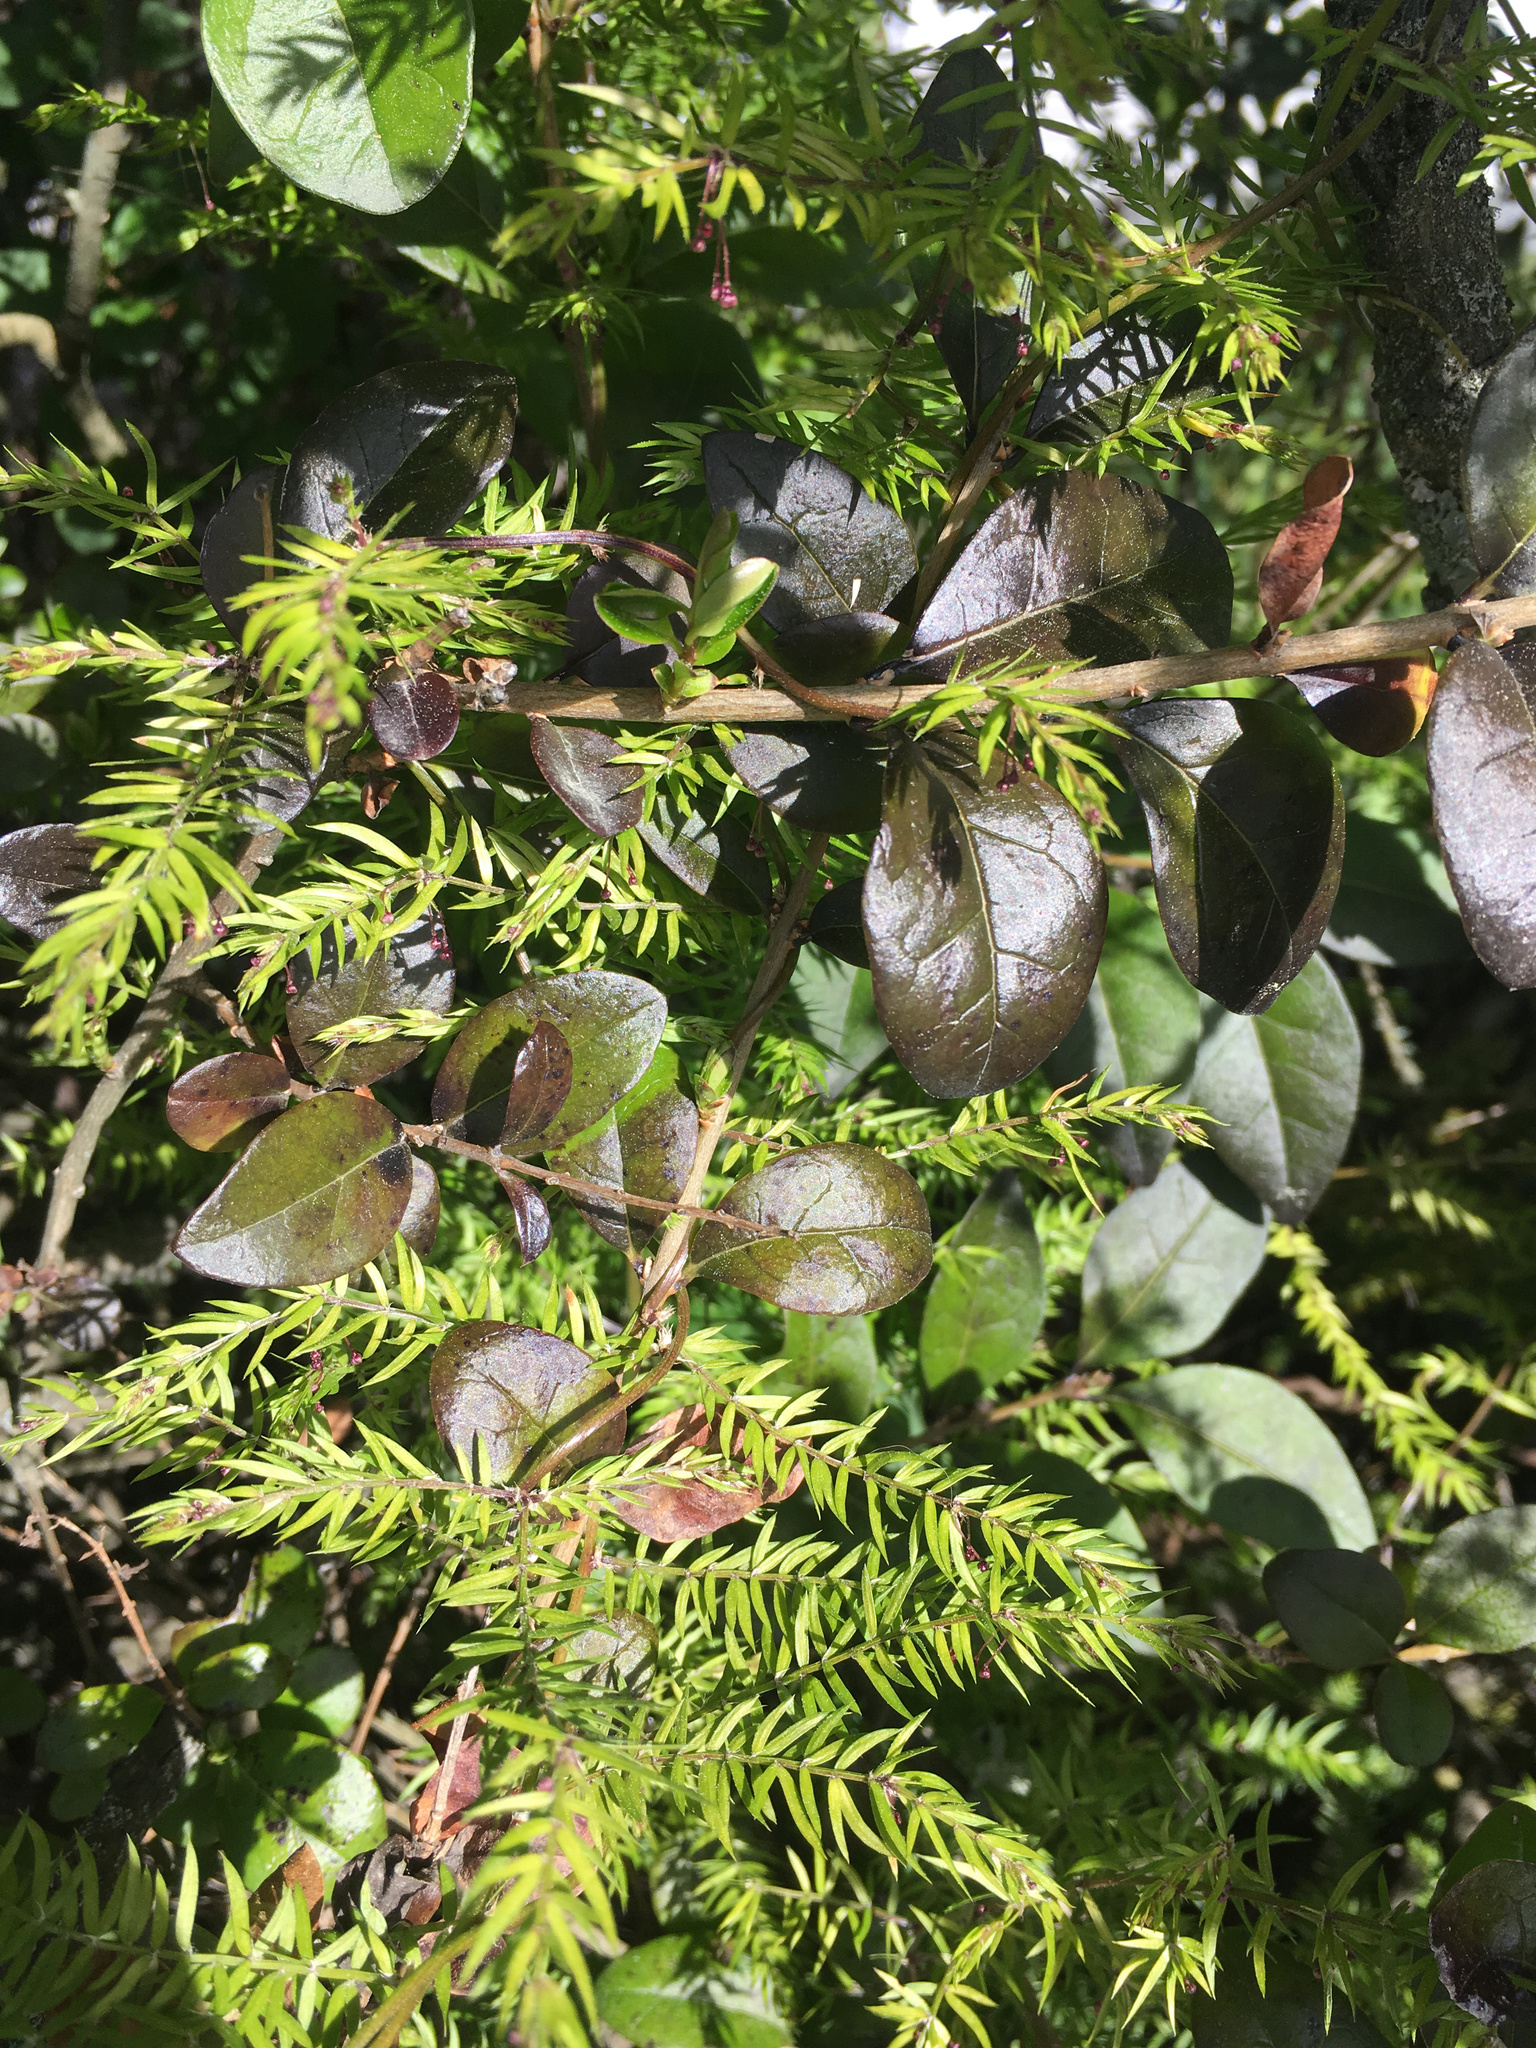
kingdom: Plantae
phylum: Tracheophyta
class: Liliopsida
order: Asparagales
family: Asparagaceae
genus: Asparagus
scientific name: Asparagus scandens
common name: Asparagus-fern
